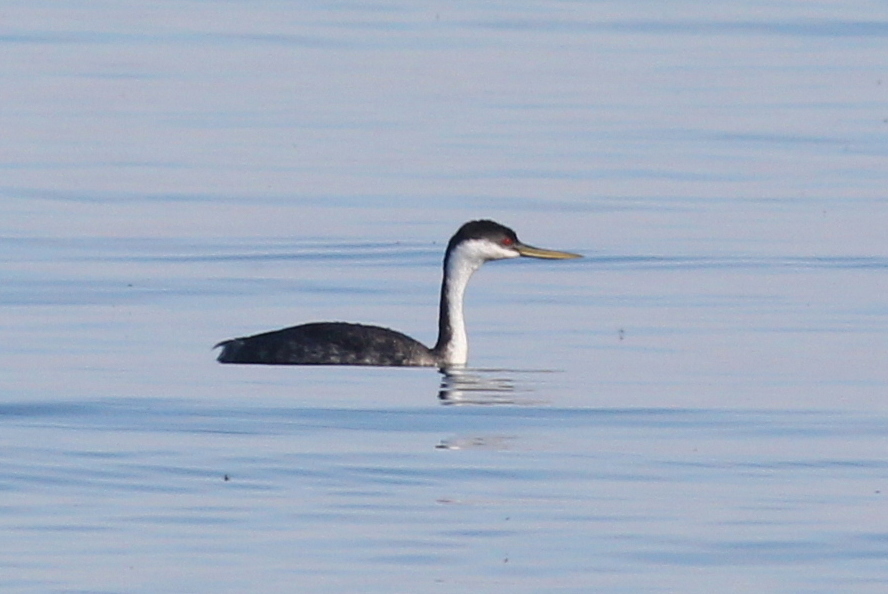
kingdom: Animalia
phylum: Chordata
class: Aves
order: Podicipediformes
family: Podicipedidae
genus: Aechmophorus
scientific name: Aechmophorus occidentalis
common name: Western grebe
